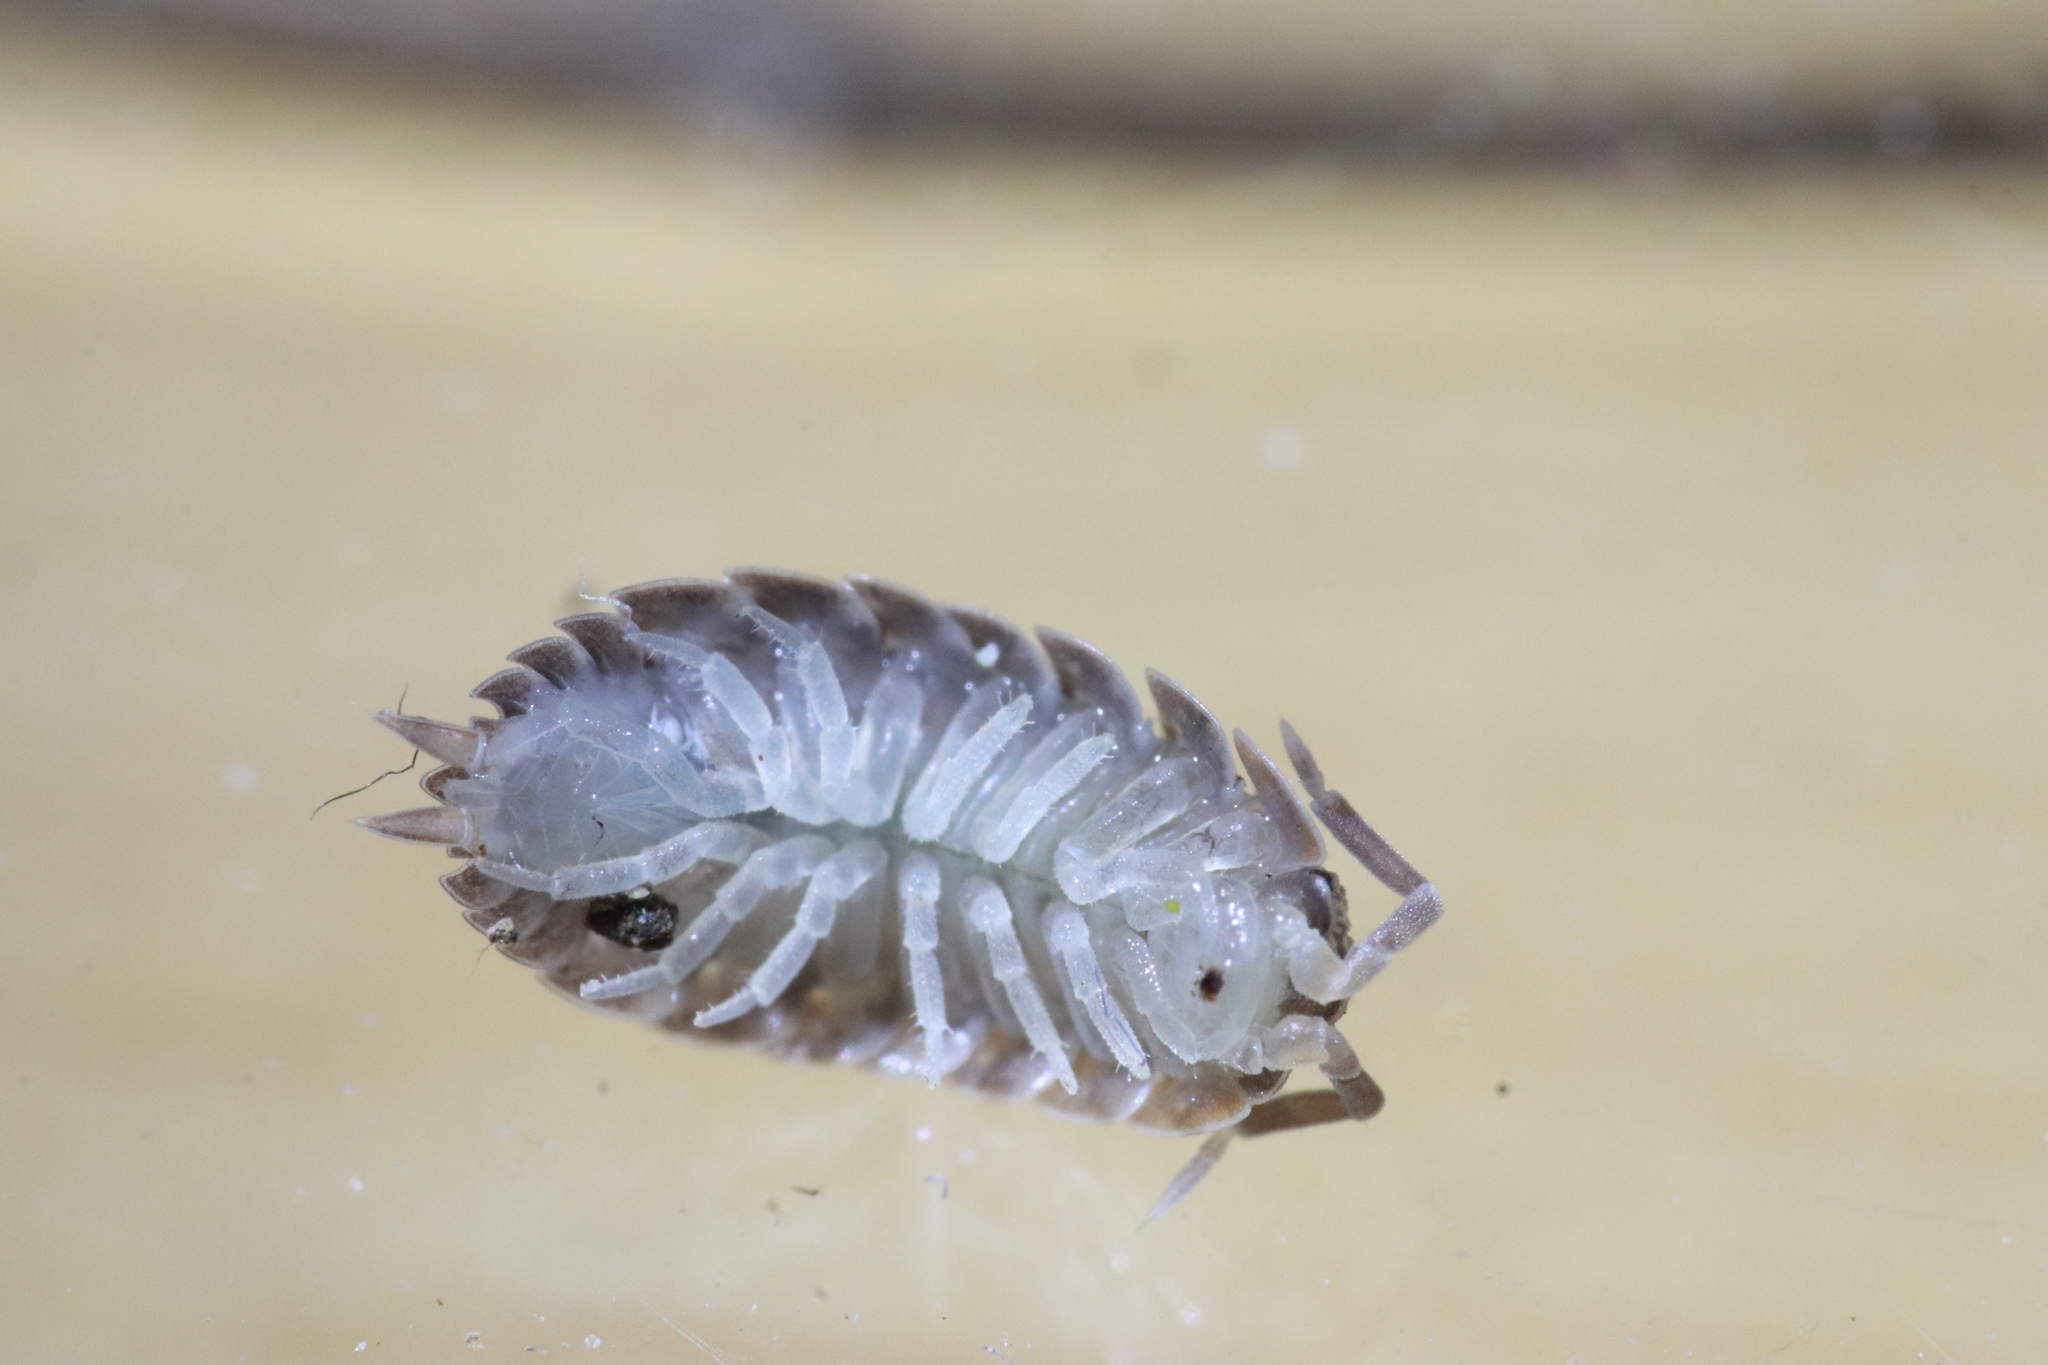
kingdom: Animalia
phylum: Arthropoda
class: Malacostraca
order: Isopoda
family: Porcellionidae
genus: Lucasius
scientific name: Lucasius pallidus
